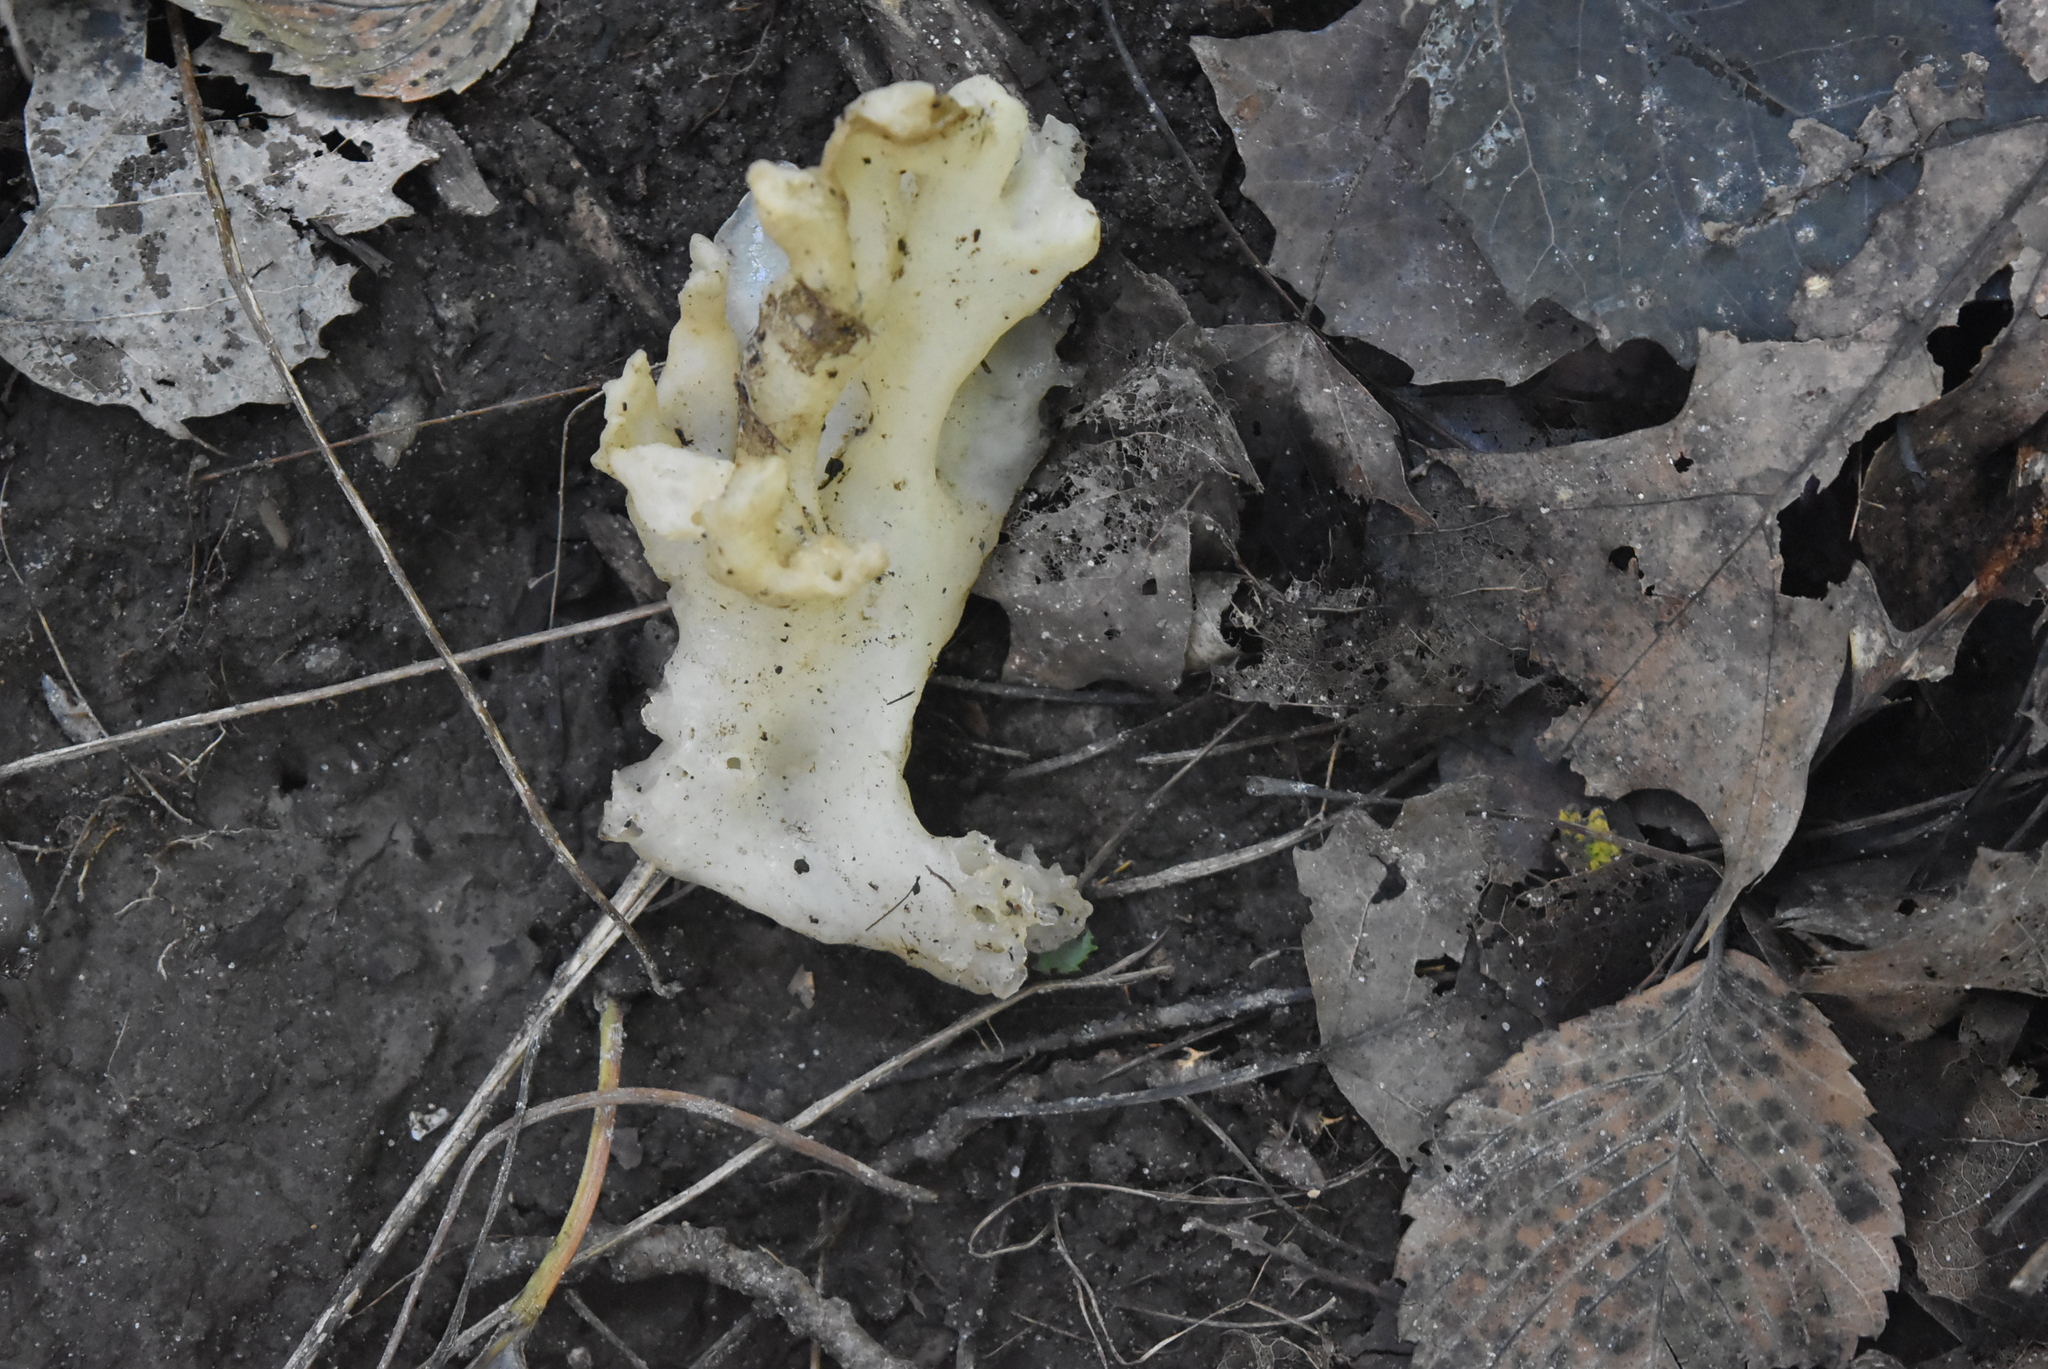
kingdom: Fungi
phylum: Basidiomycota
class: Agaricomycetes
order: Sebacinales
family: Sebacinaceae
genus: Sebacina
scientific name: Sebacina sparassoidea
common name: White coral jelly fungus
